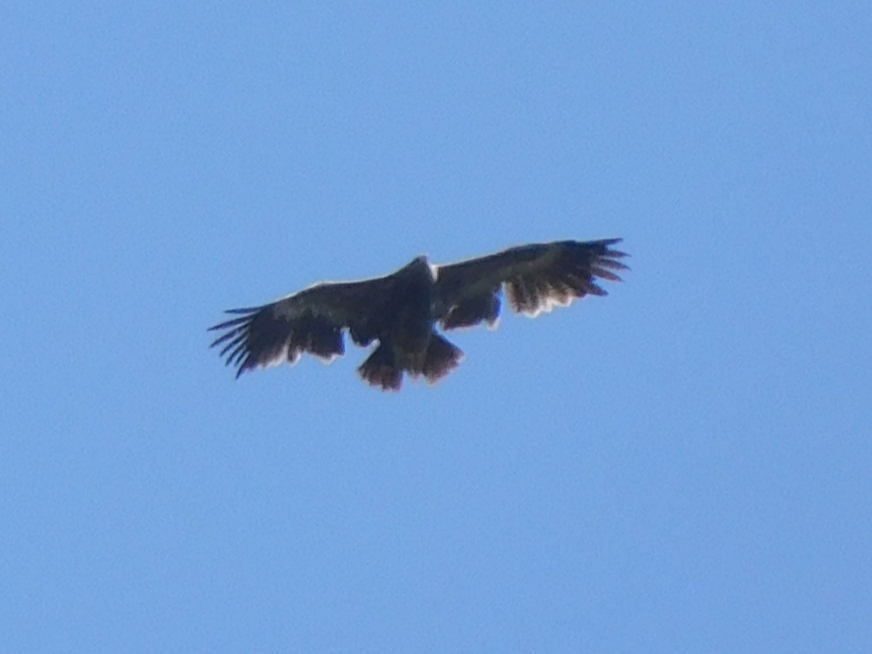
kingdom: Animalia
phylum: Chordata
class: Aves
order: Accipitriformes
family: Accipitridae
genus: Aquila
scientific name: Aquila nipalensis
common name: Steppe eagle
